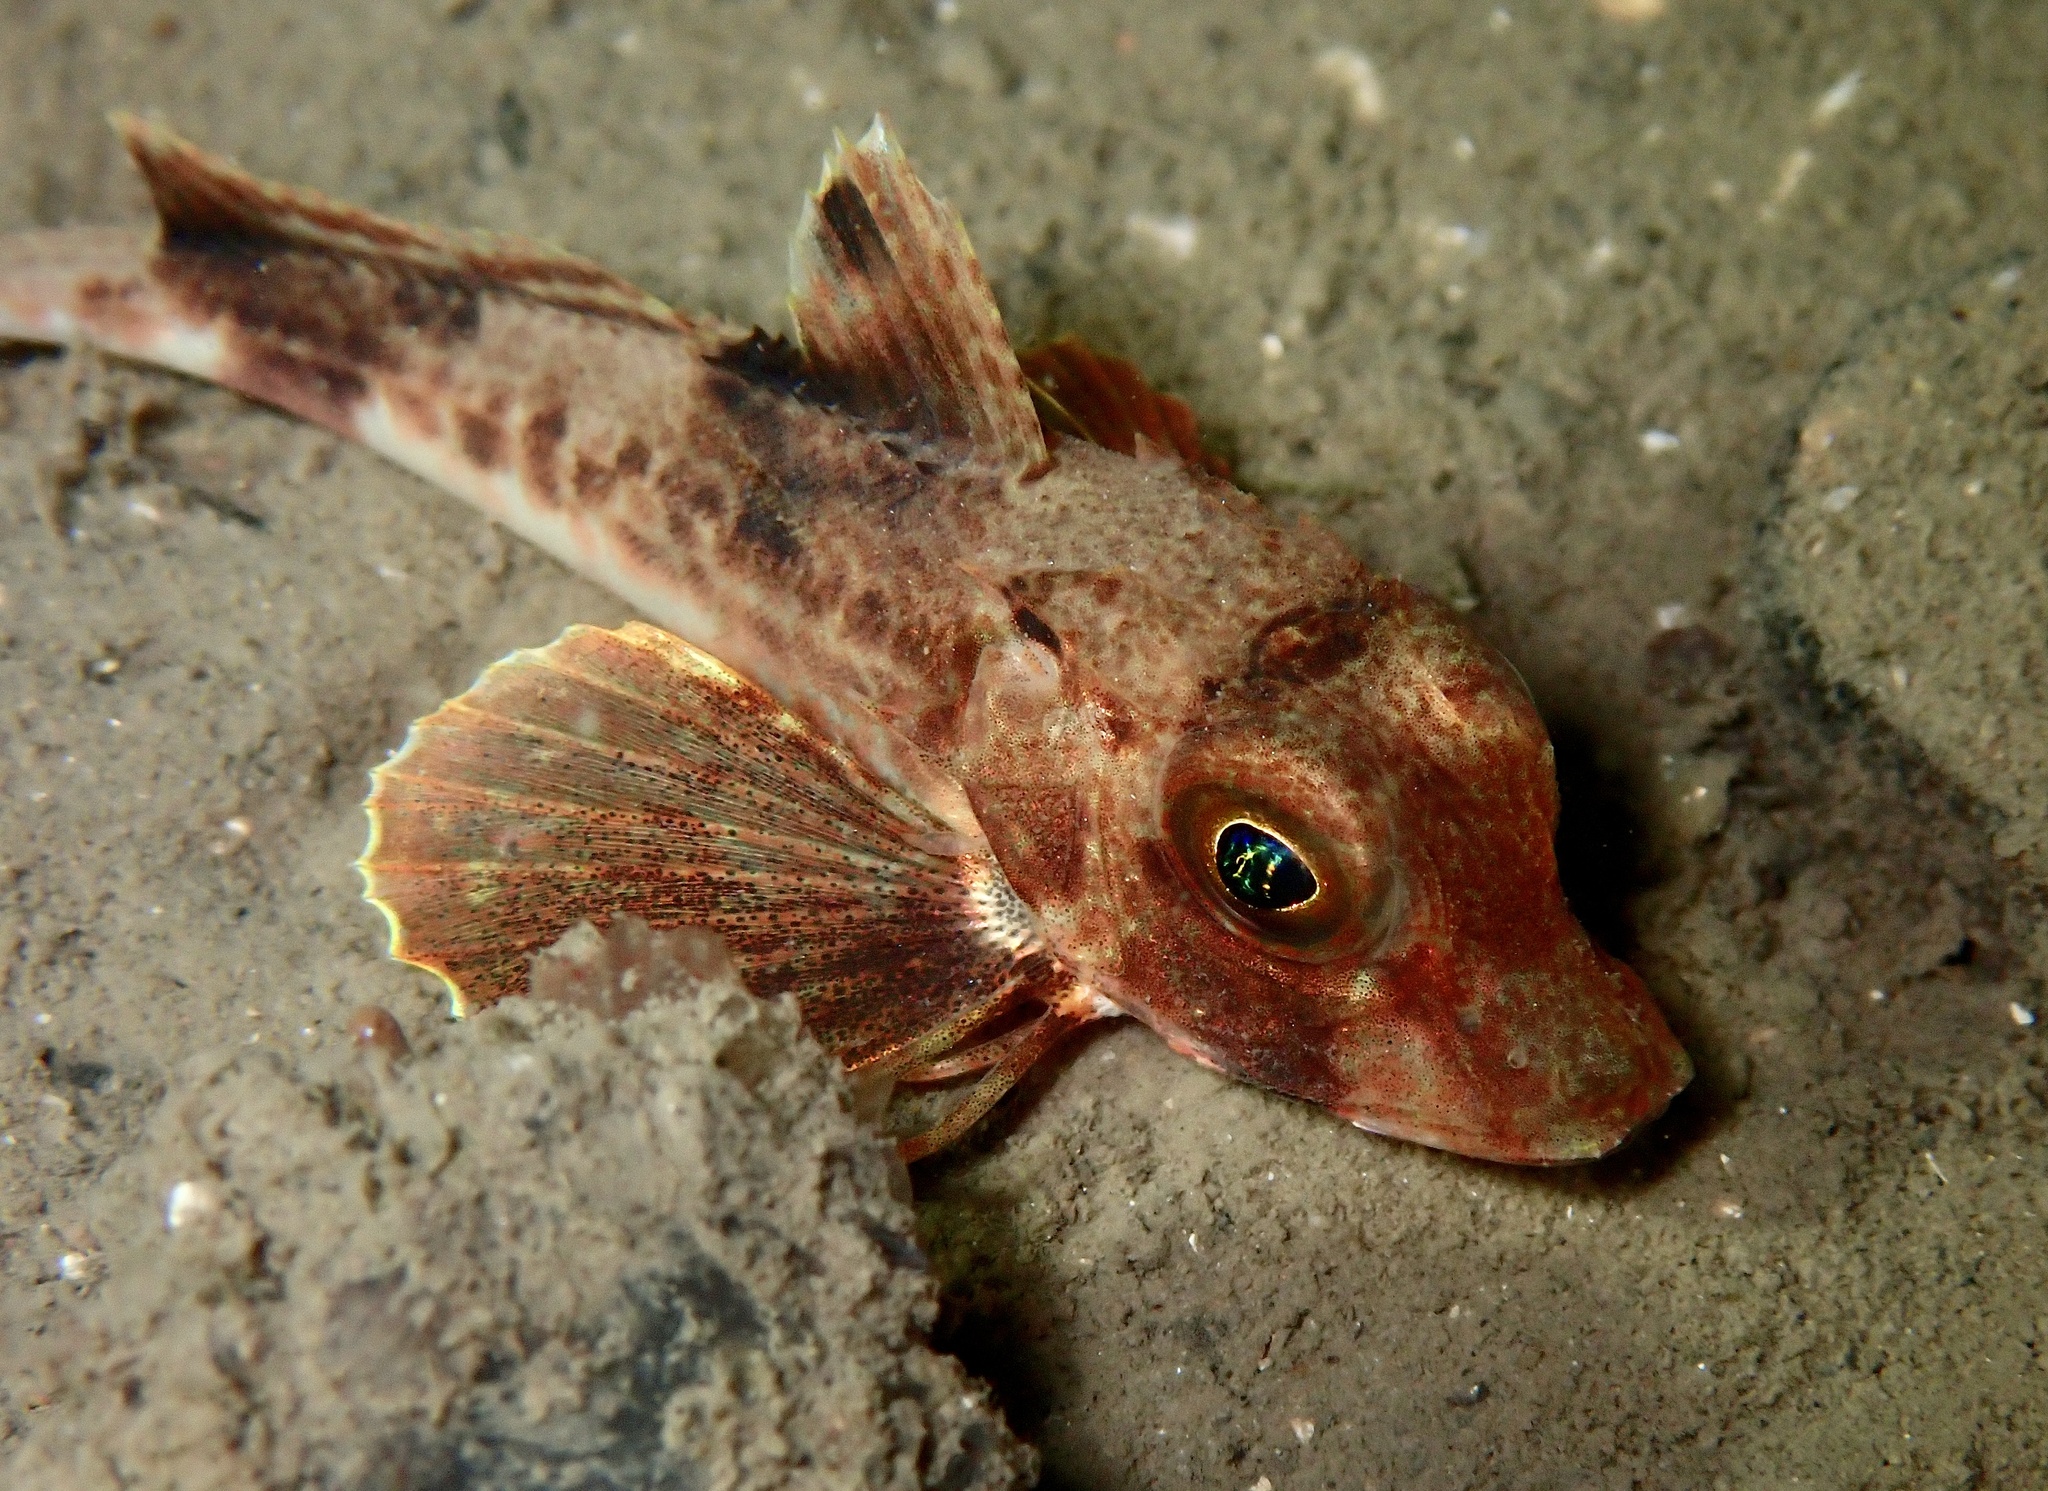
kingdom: Animalia
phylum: Chordata
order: Scorpaeniformes
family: Triglidae
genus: Eutrigla
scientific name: Eutrigla gurnardus
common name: Grey gurnard
